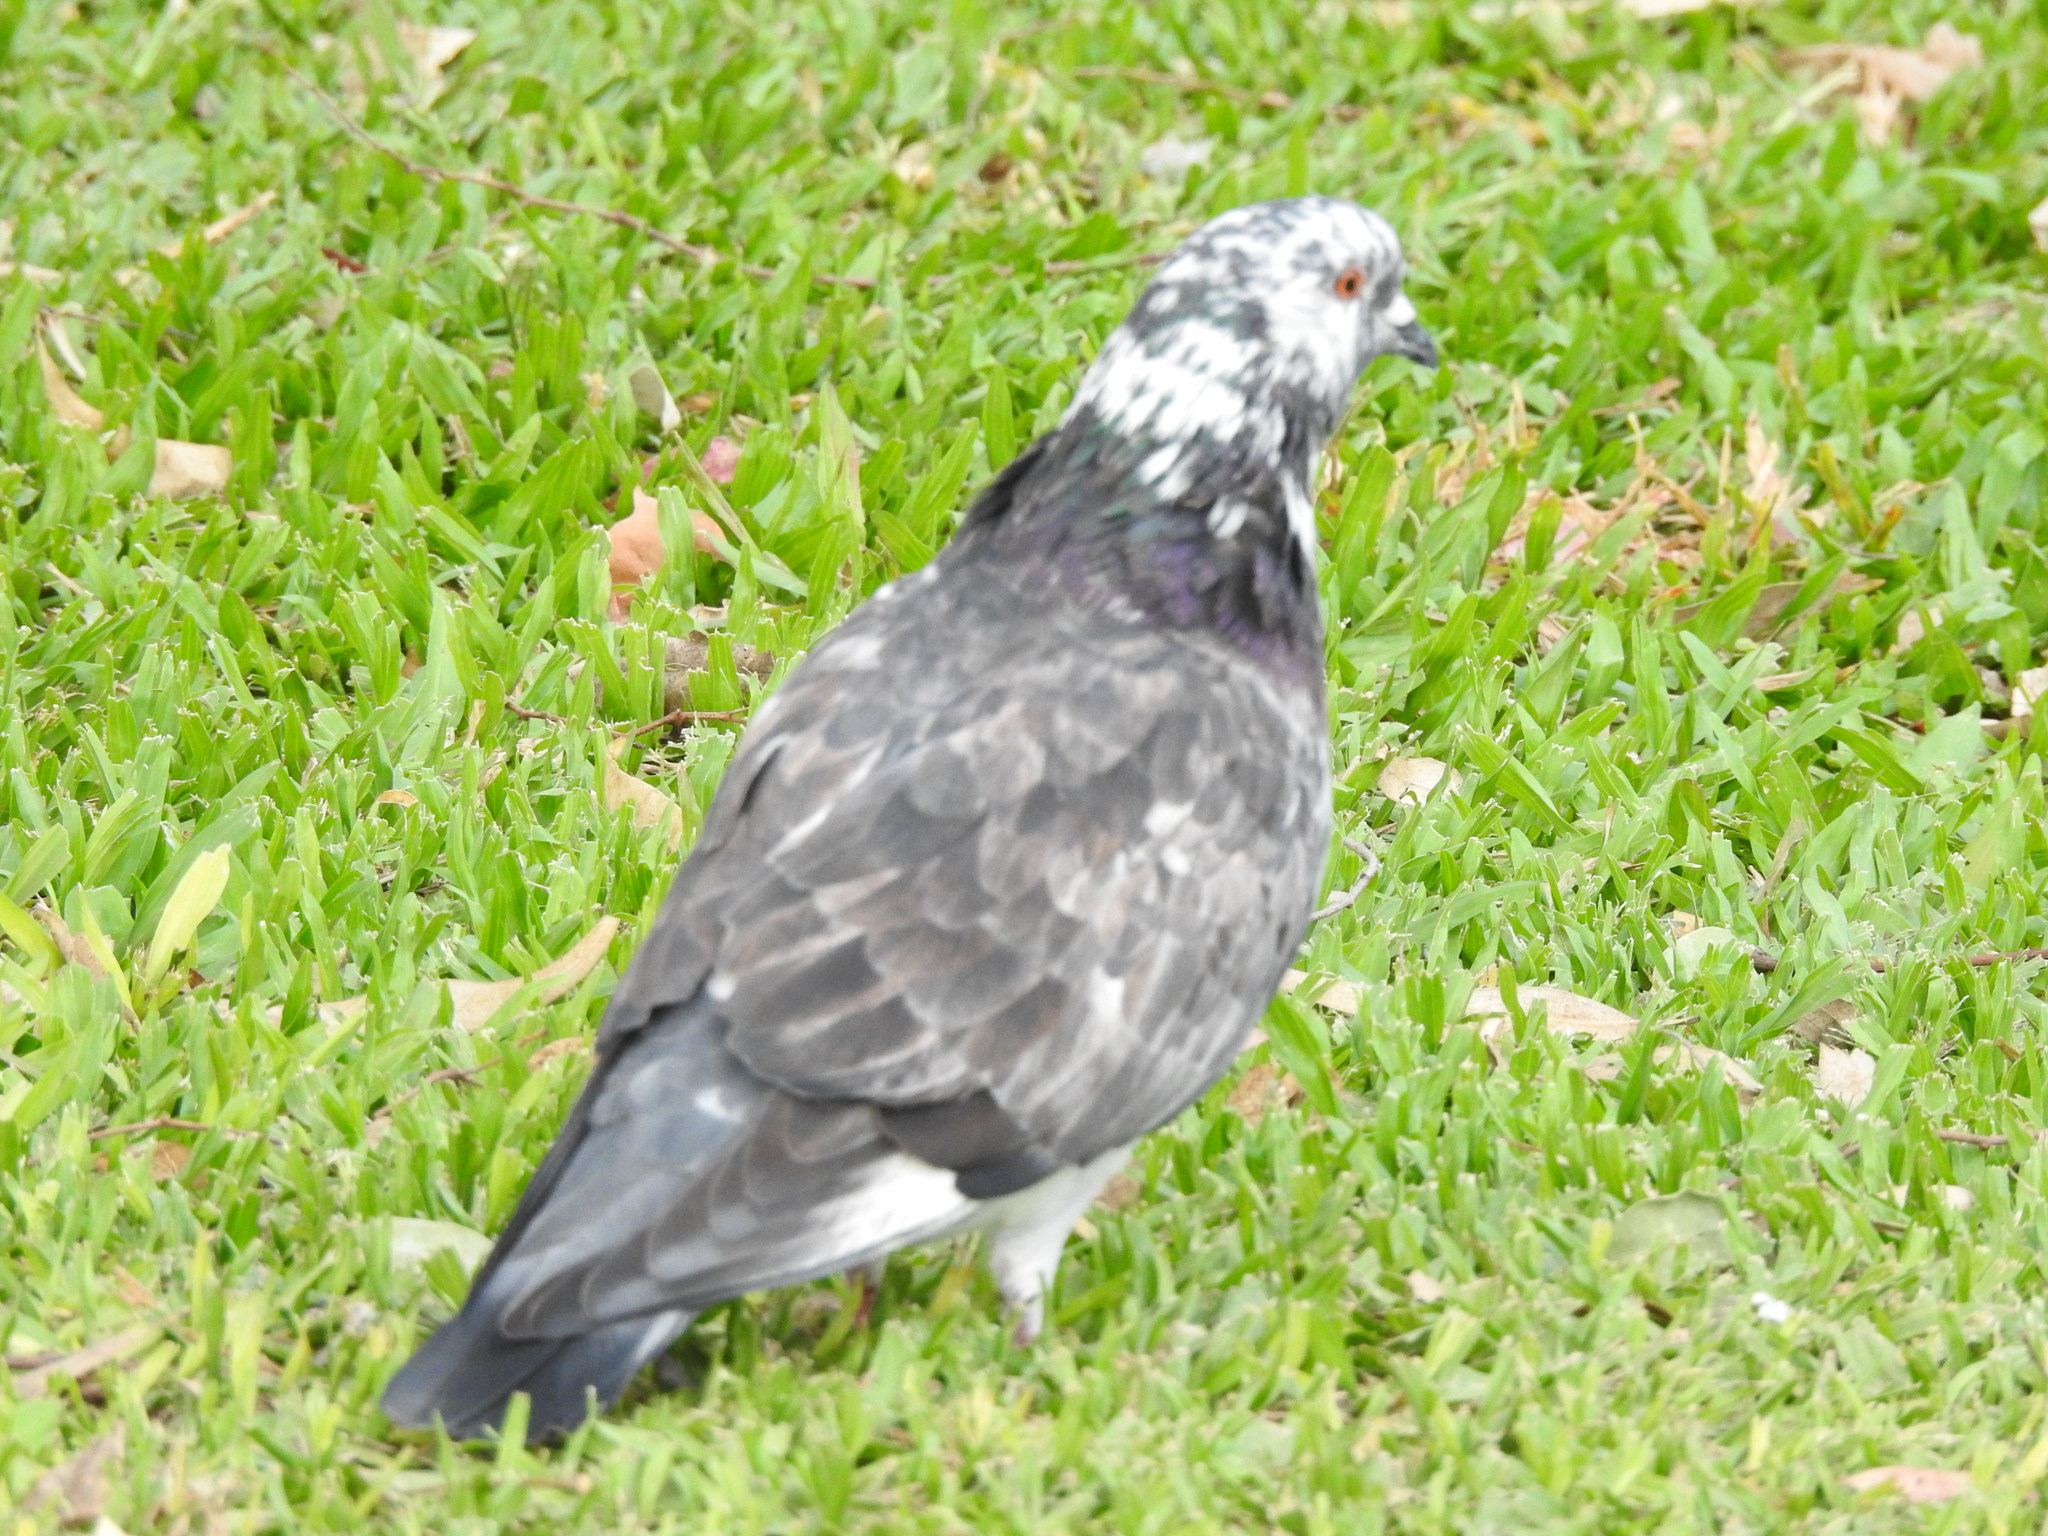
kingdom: Animalia
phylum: Chordata
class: Aves
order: Columbiformes
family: Columbidae
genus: Columba
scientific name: Columba livia
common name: Rock pigeon
